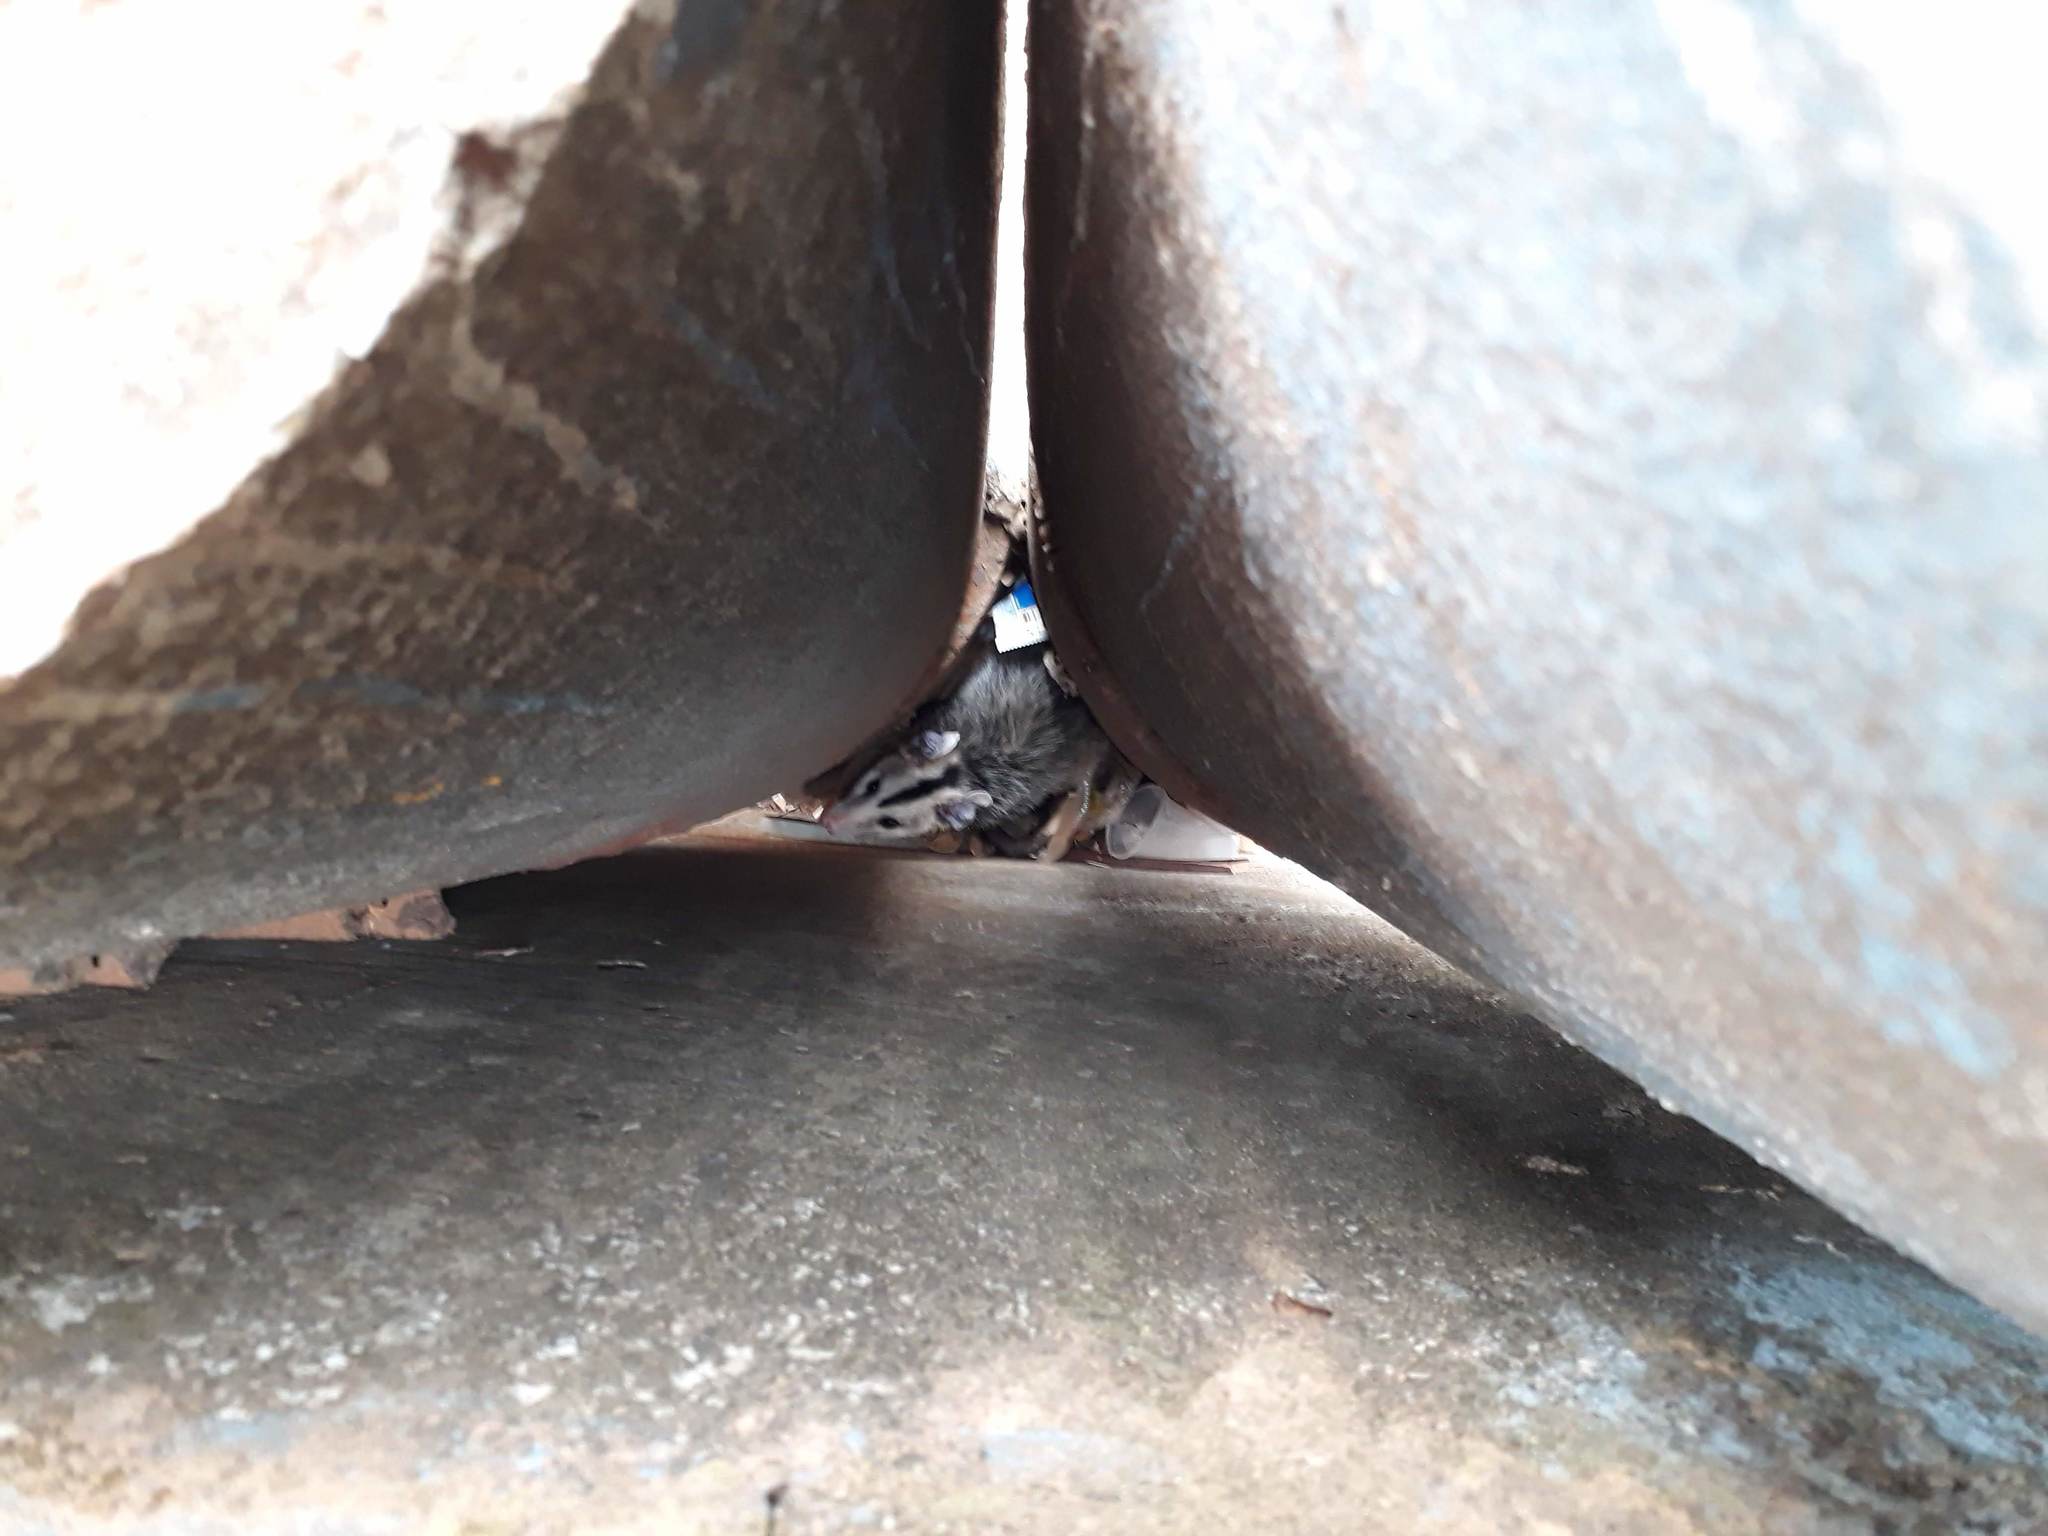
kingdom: Animalia
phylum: Chordata
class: Mammalia
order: Didelphimorphia
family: Didelphidae
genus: Didelphis
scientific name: Didelphis albiventris
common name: White-eared opossum
